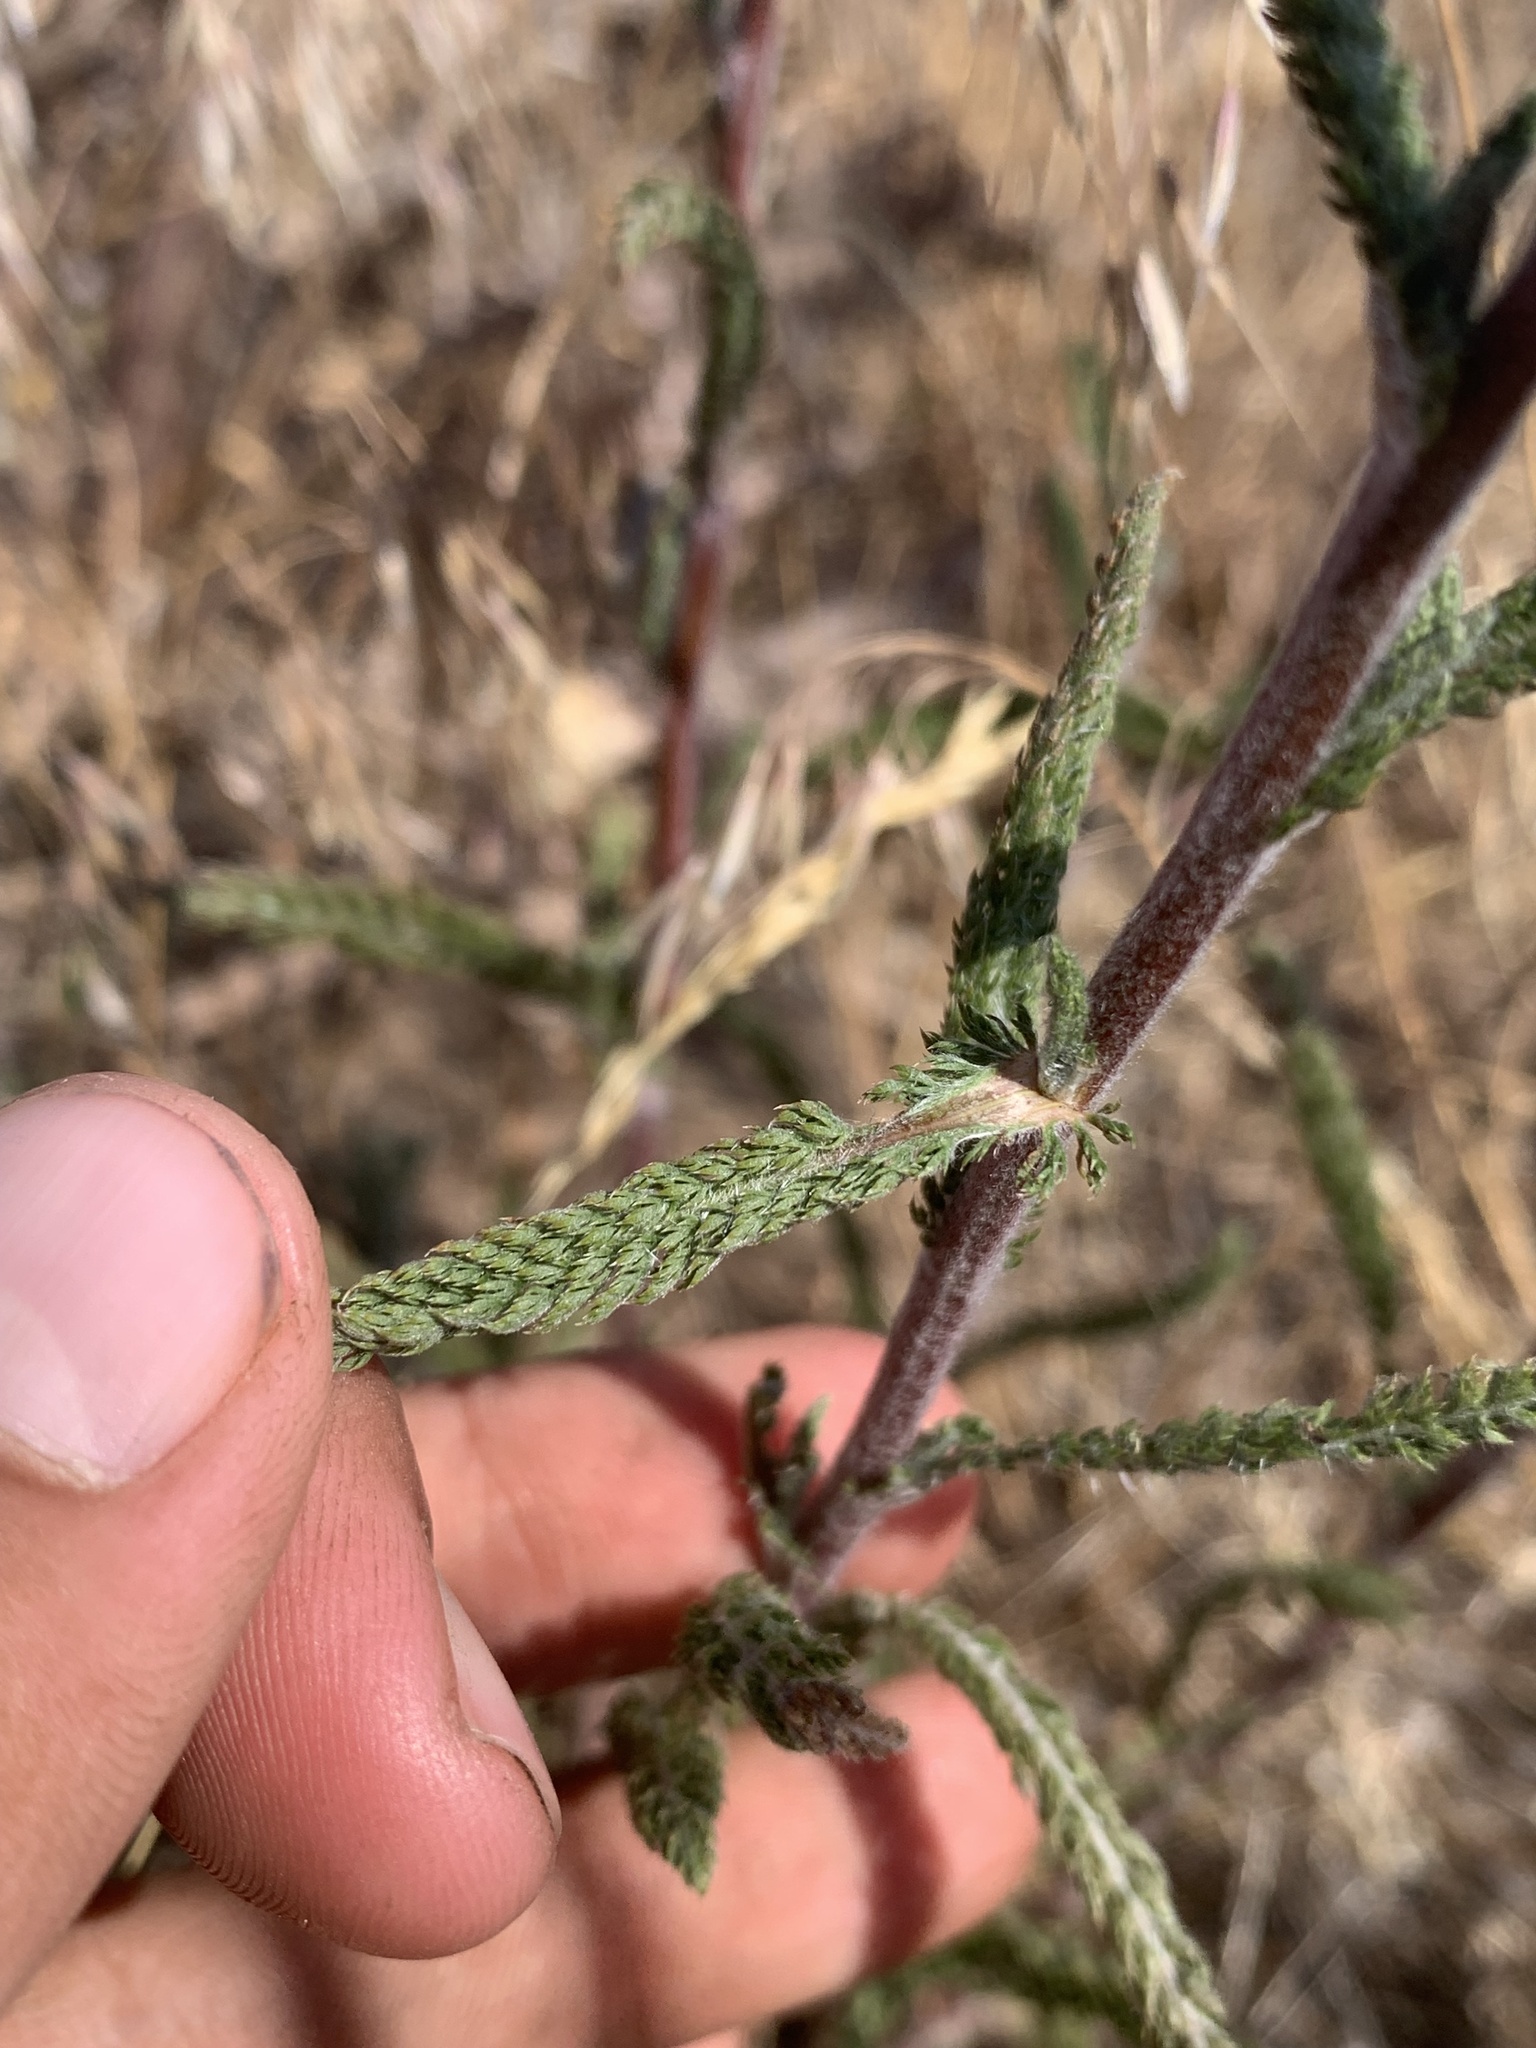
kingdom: Plantae
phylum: Tracheophyta
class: Magnoliopsida
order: Asterales
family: Asteraceae
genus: Achillea
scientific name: Achillea millefolium
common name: Yarrow
